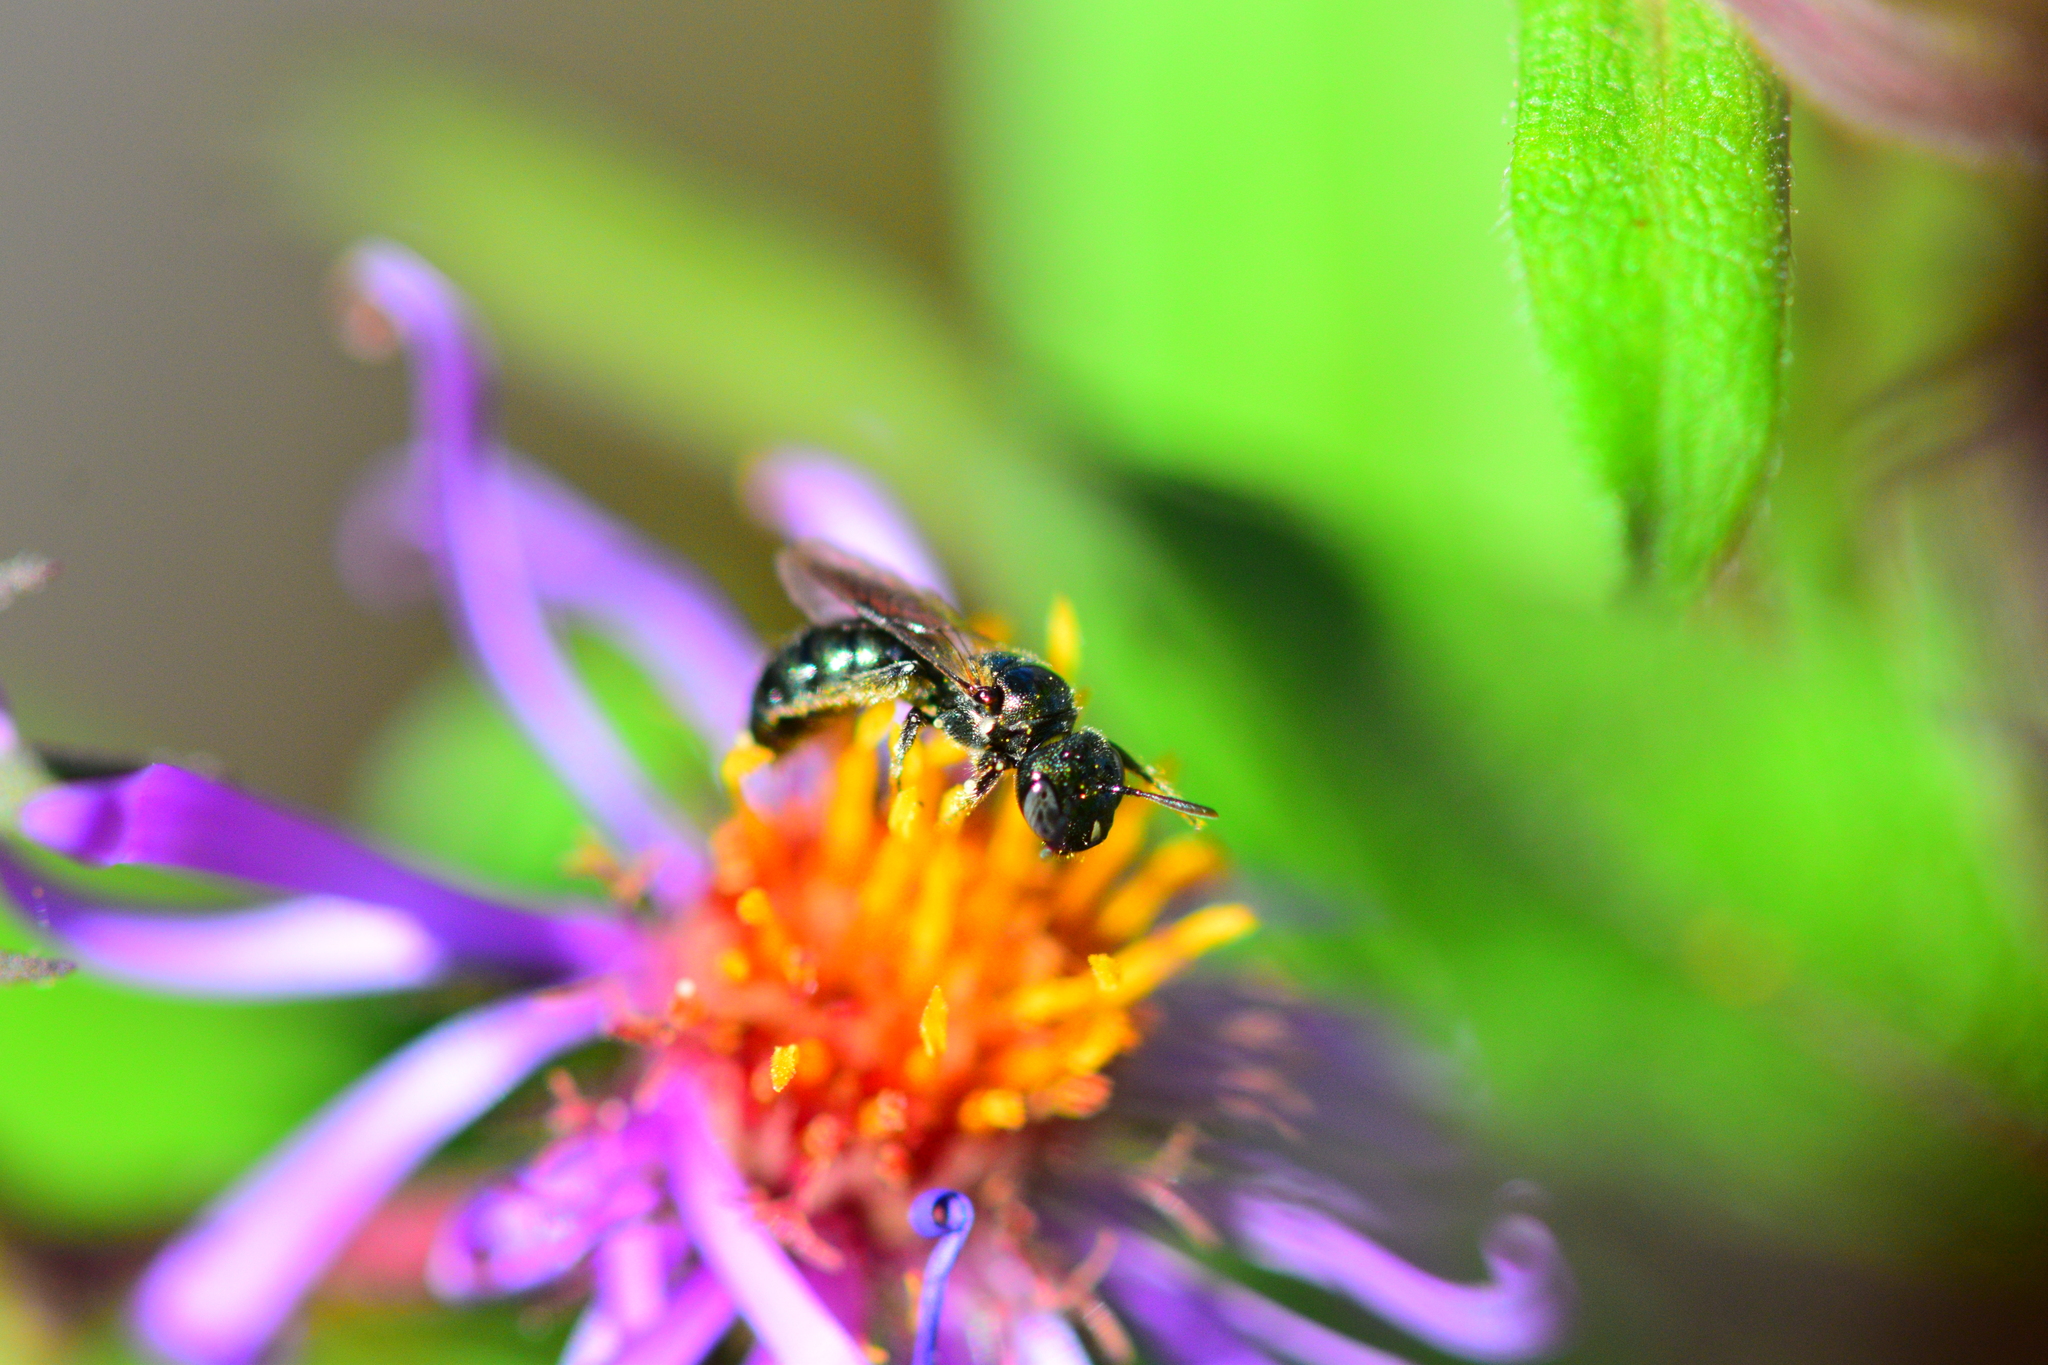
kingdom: Animalia
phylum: Arthropoda
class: Insecta
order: Hymenoptera
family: Apidae
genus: Zadontomerus
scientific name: Zadontomerus
